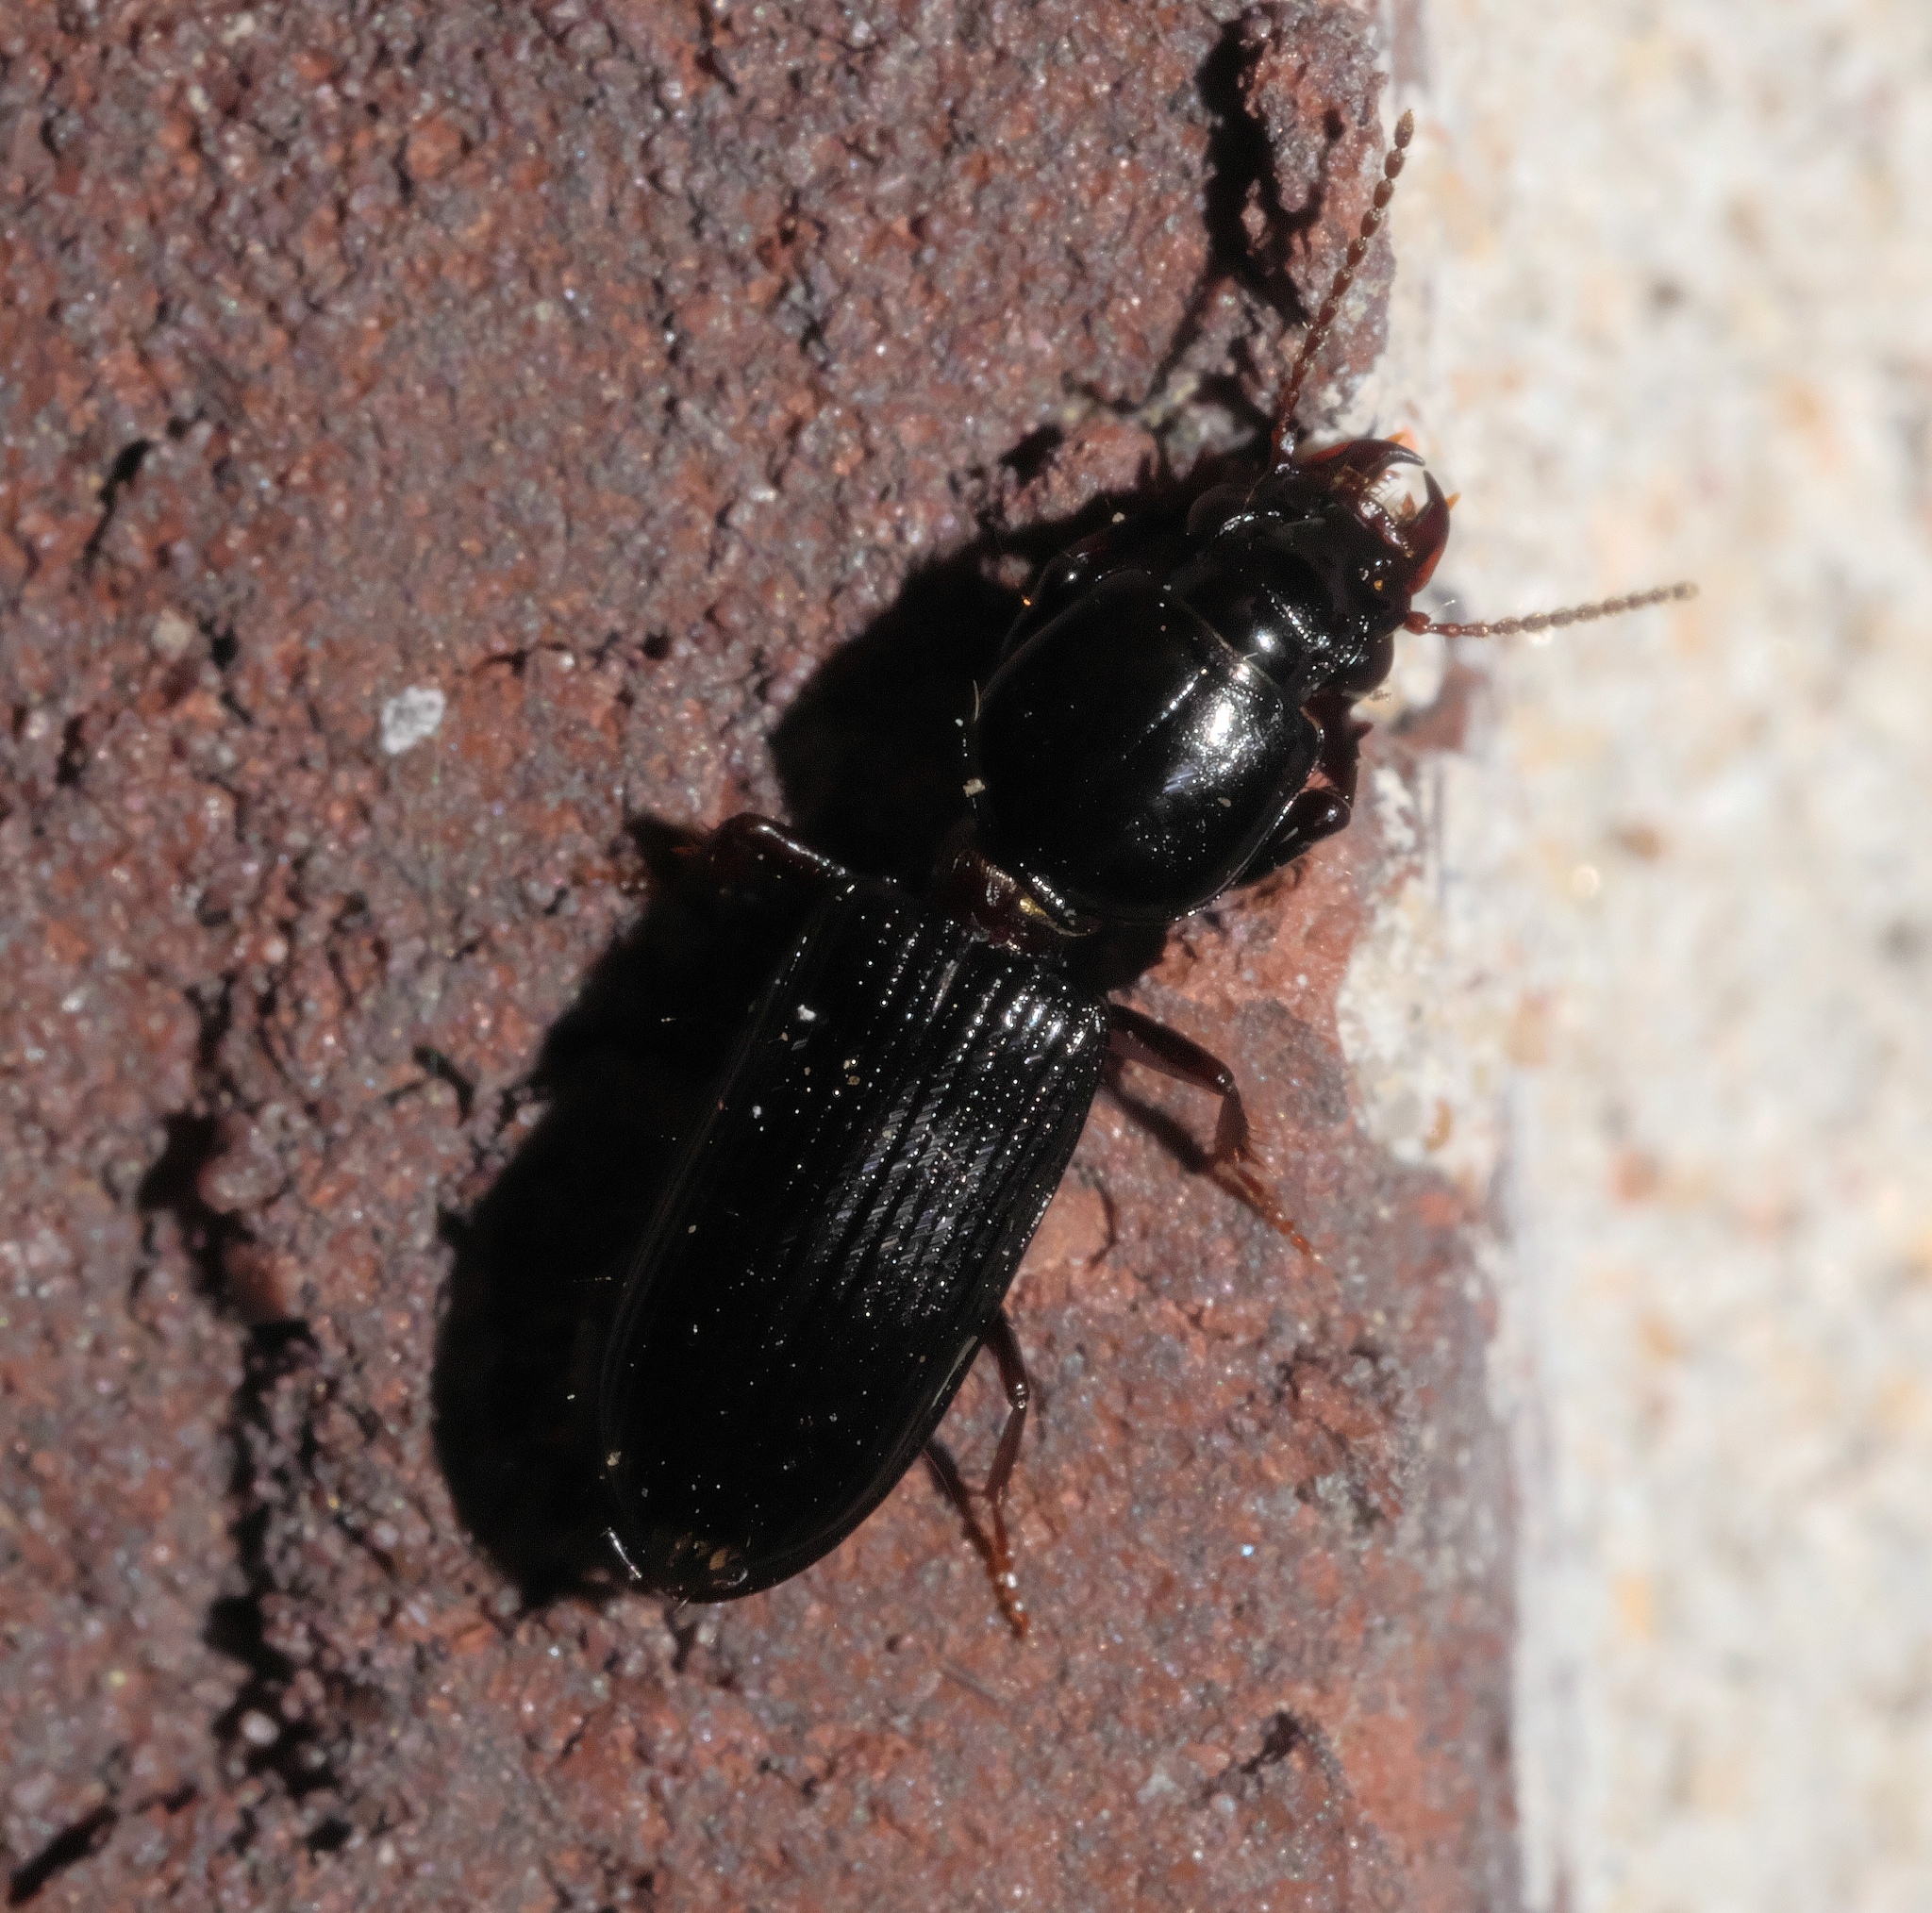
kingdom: Animalia
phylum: Arthropoda
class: Insecta
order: Coleoptera
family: Carabidae
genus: Semiclivina
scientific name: Semiclivina dentipes
